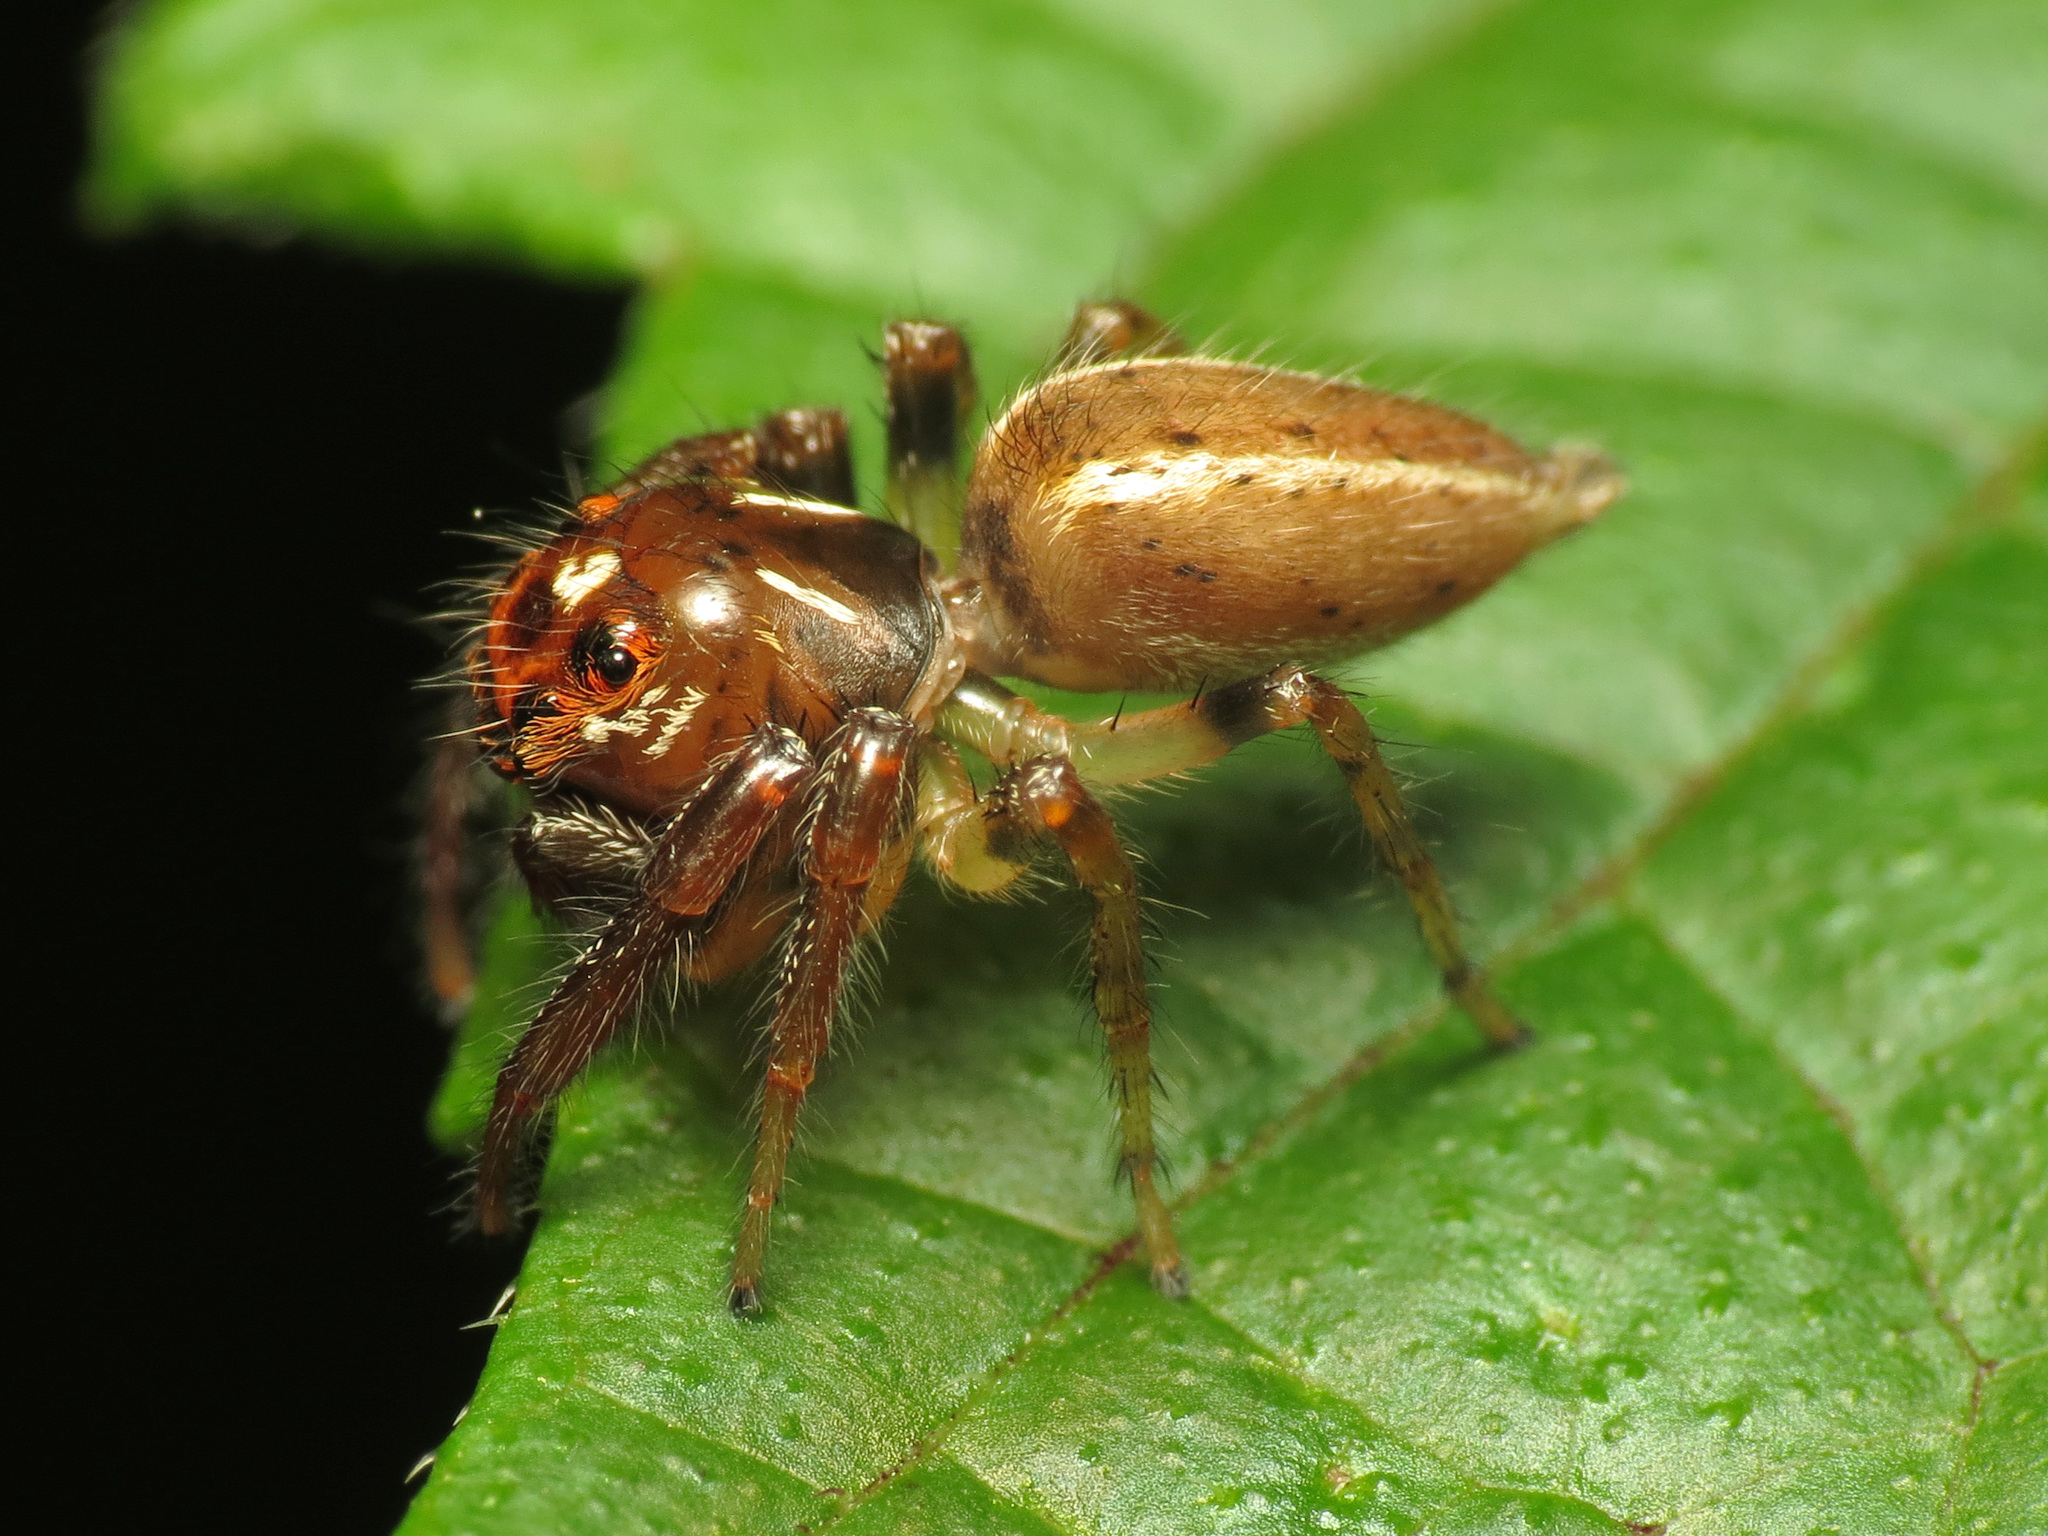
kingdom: Animalia
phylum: Arthropoda
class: Arachnida
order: Araneae
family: Salticidae
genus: Colonus
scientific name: Colonus sylvanus
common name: Jumping spiders
